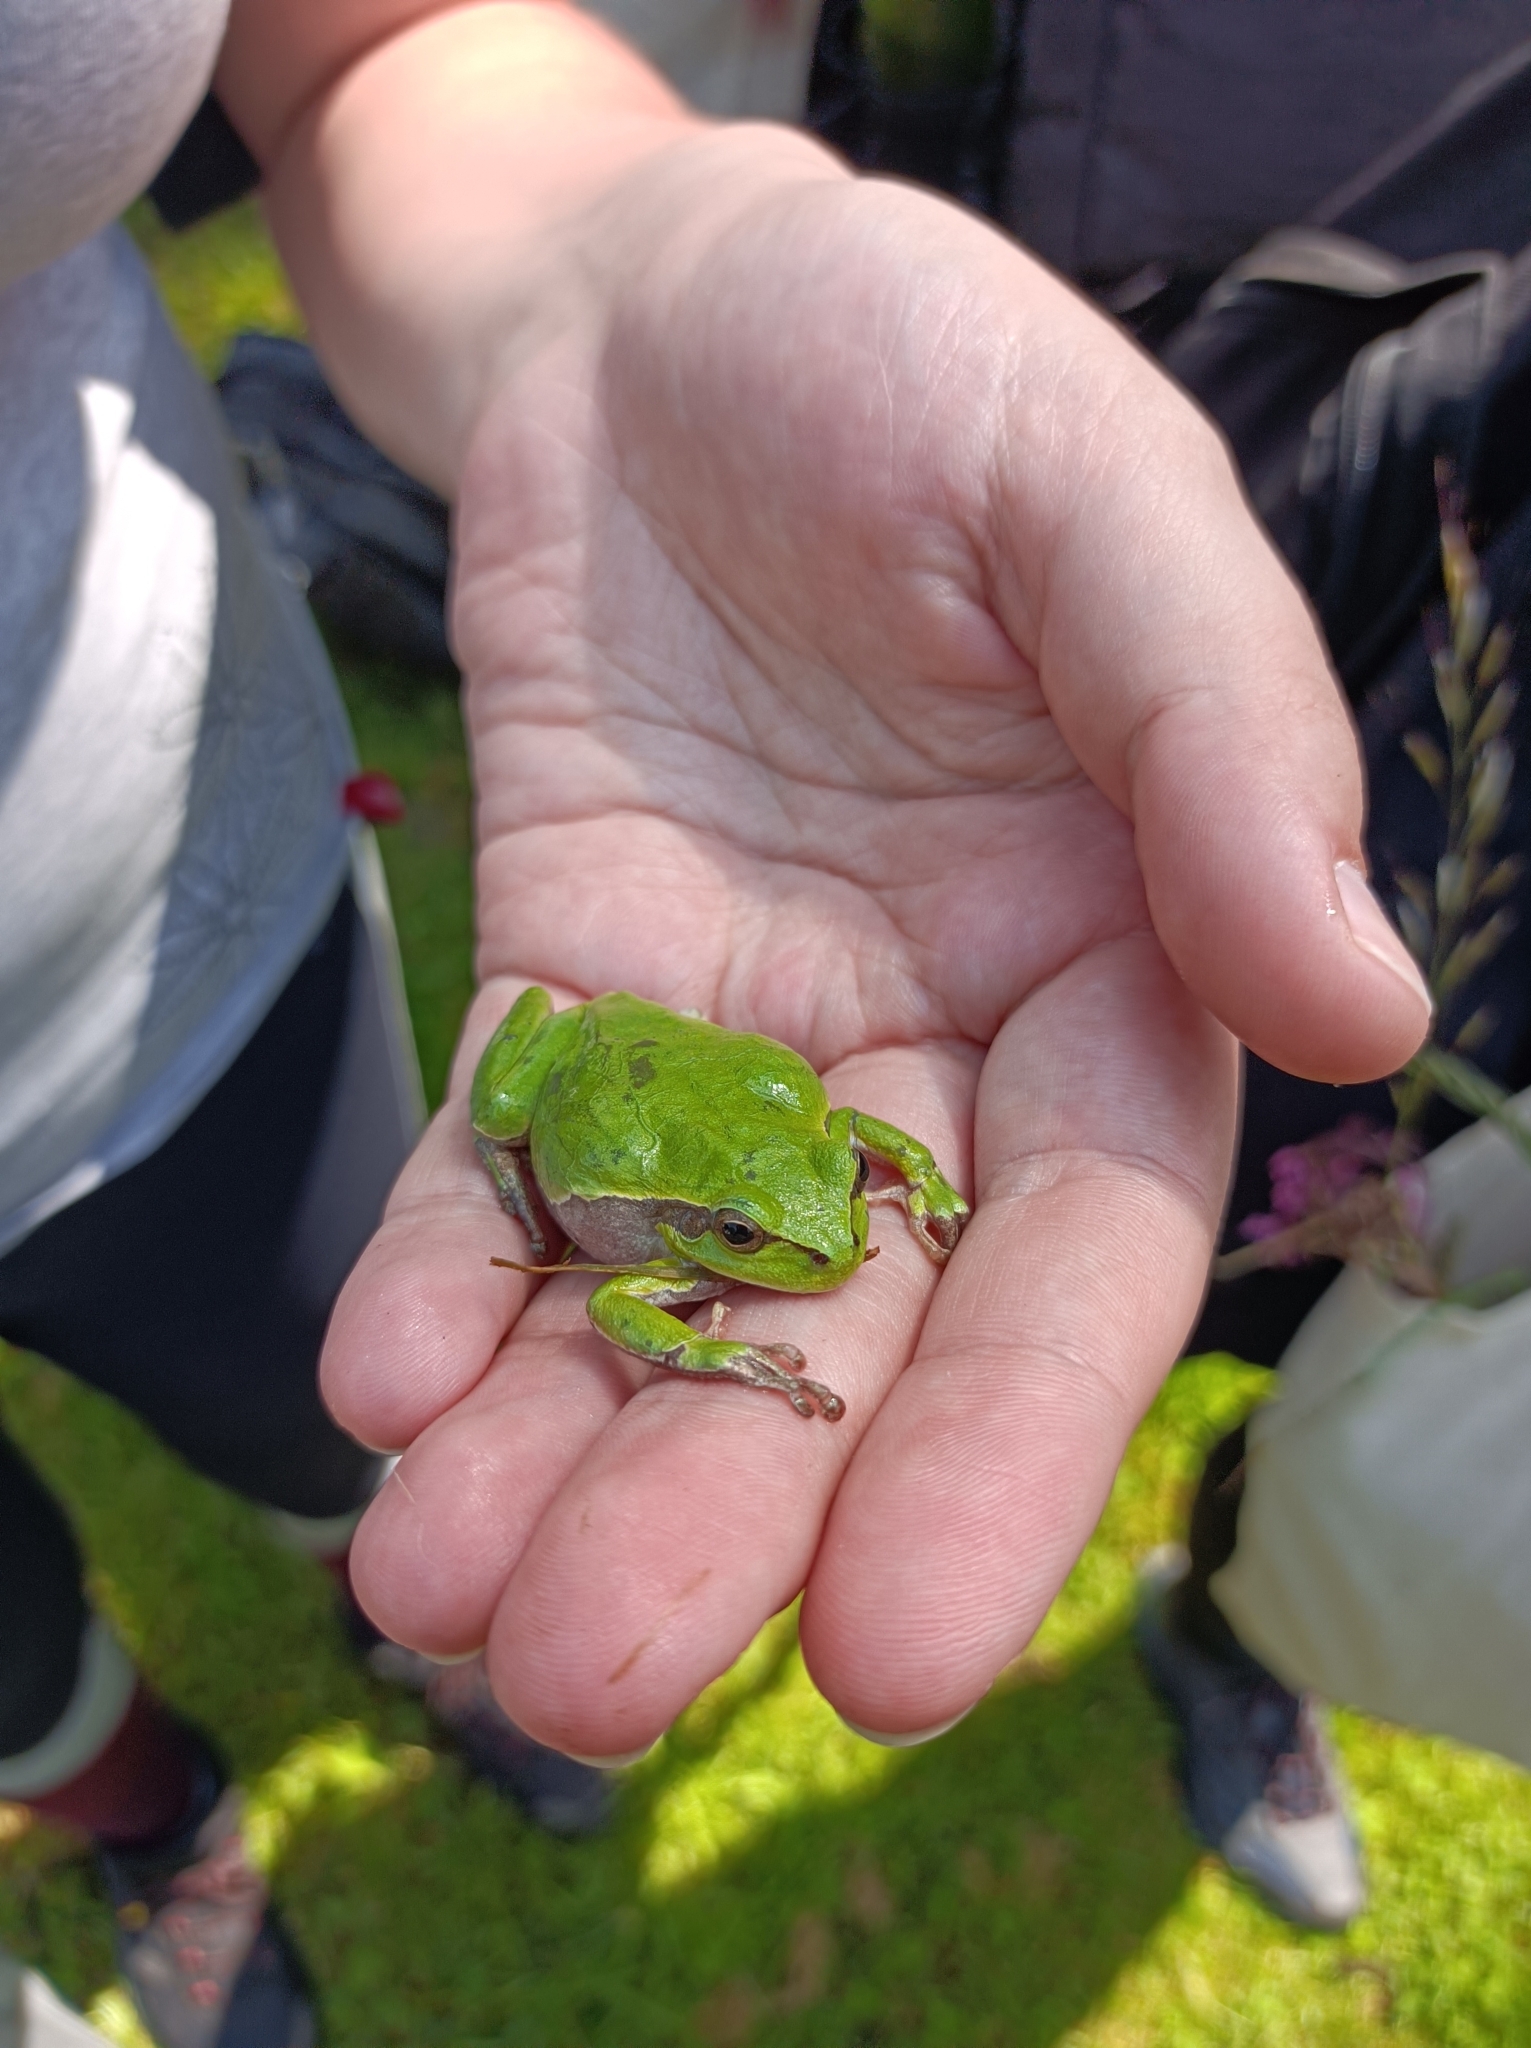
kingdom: Animalia
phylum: Chordata
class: Amphibia
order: Anura
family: Hylidae
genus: Hyla
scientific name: Hyla arborea
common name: Common tree frog
